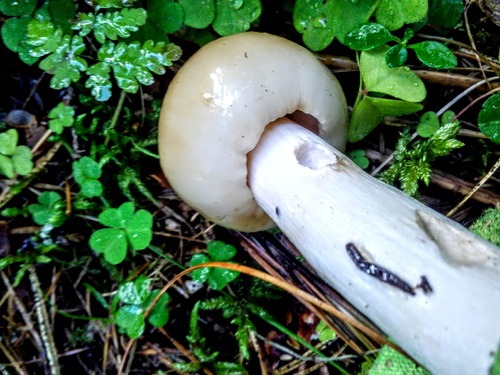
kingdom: Fungi
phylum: Basidiomycota
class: Agaricomycetes
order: Russulales
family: Russulaceae
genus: Russula
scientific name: Russula foetens
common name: Foetid russula
